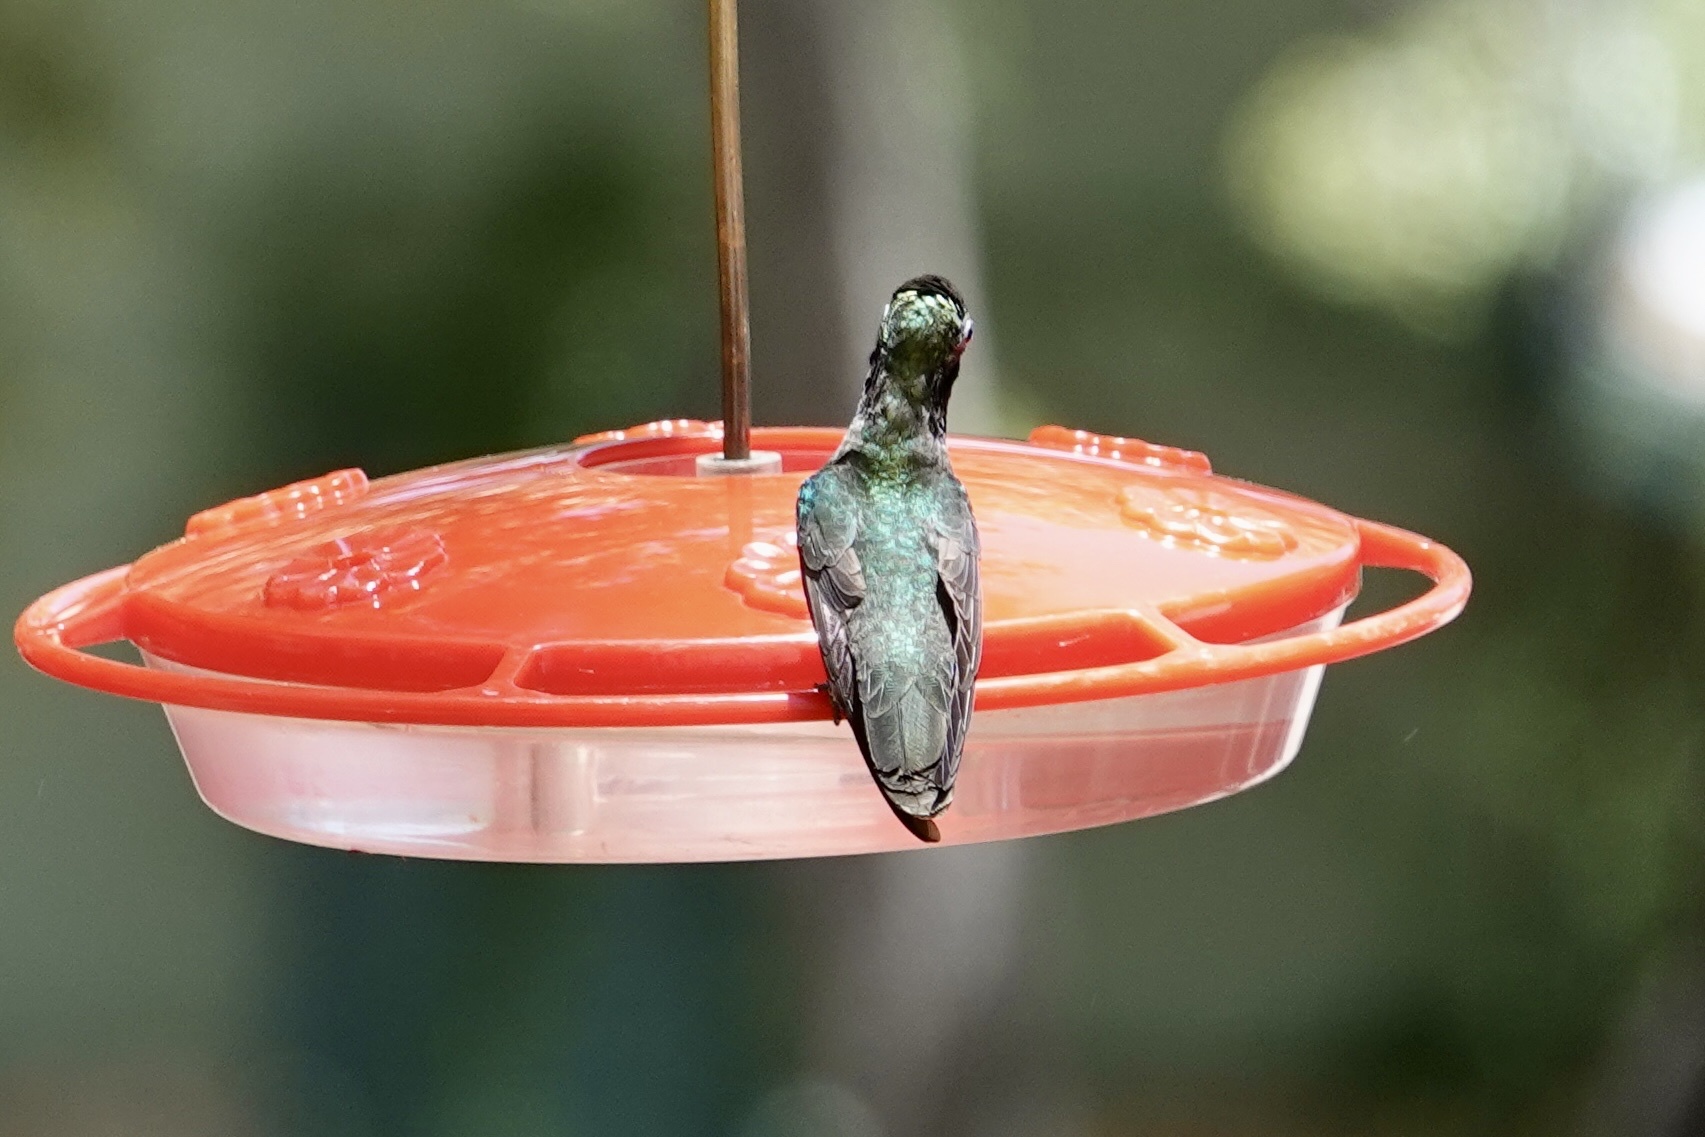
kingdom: Animalia
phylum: Chordata
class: Aves
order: Apodiformes
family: Trochilidae
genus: Eugenes
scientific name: Eugenes fulgens
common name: Magnificent hummingbird
